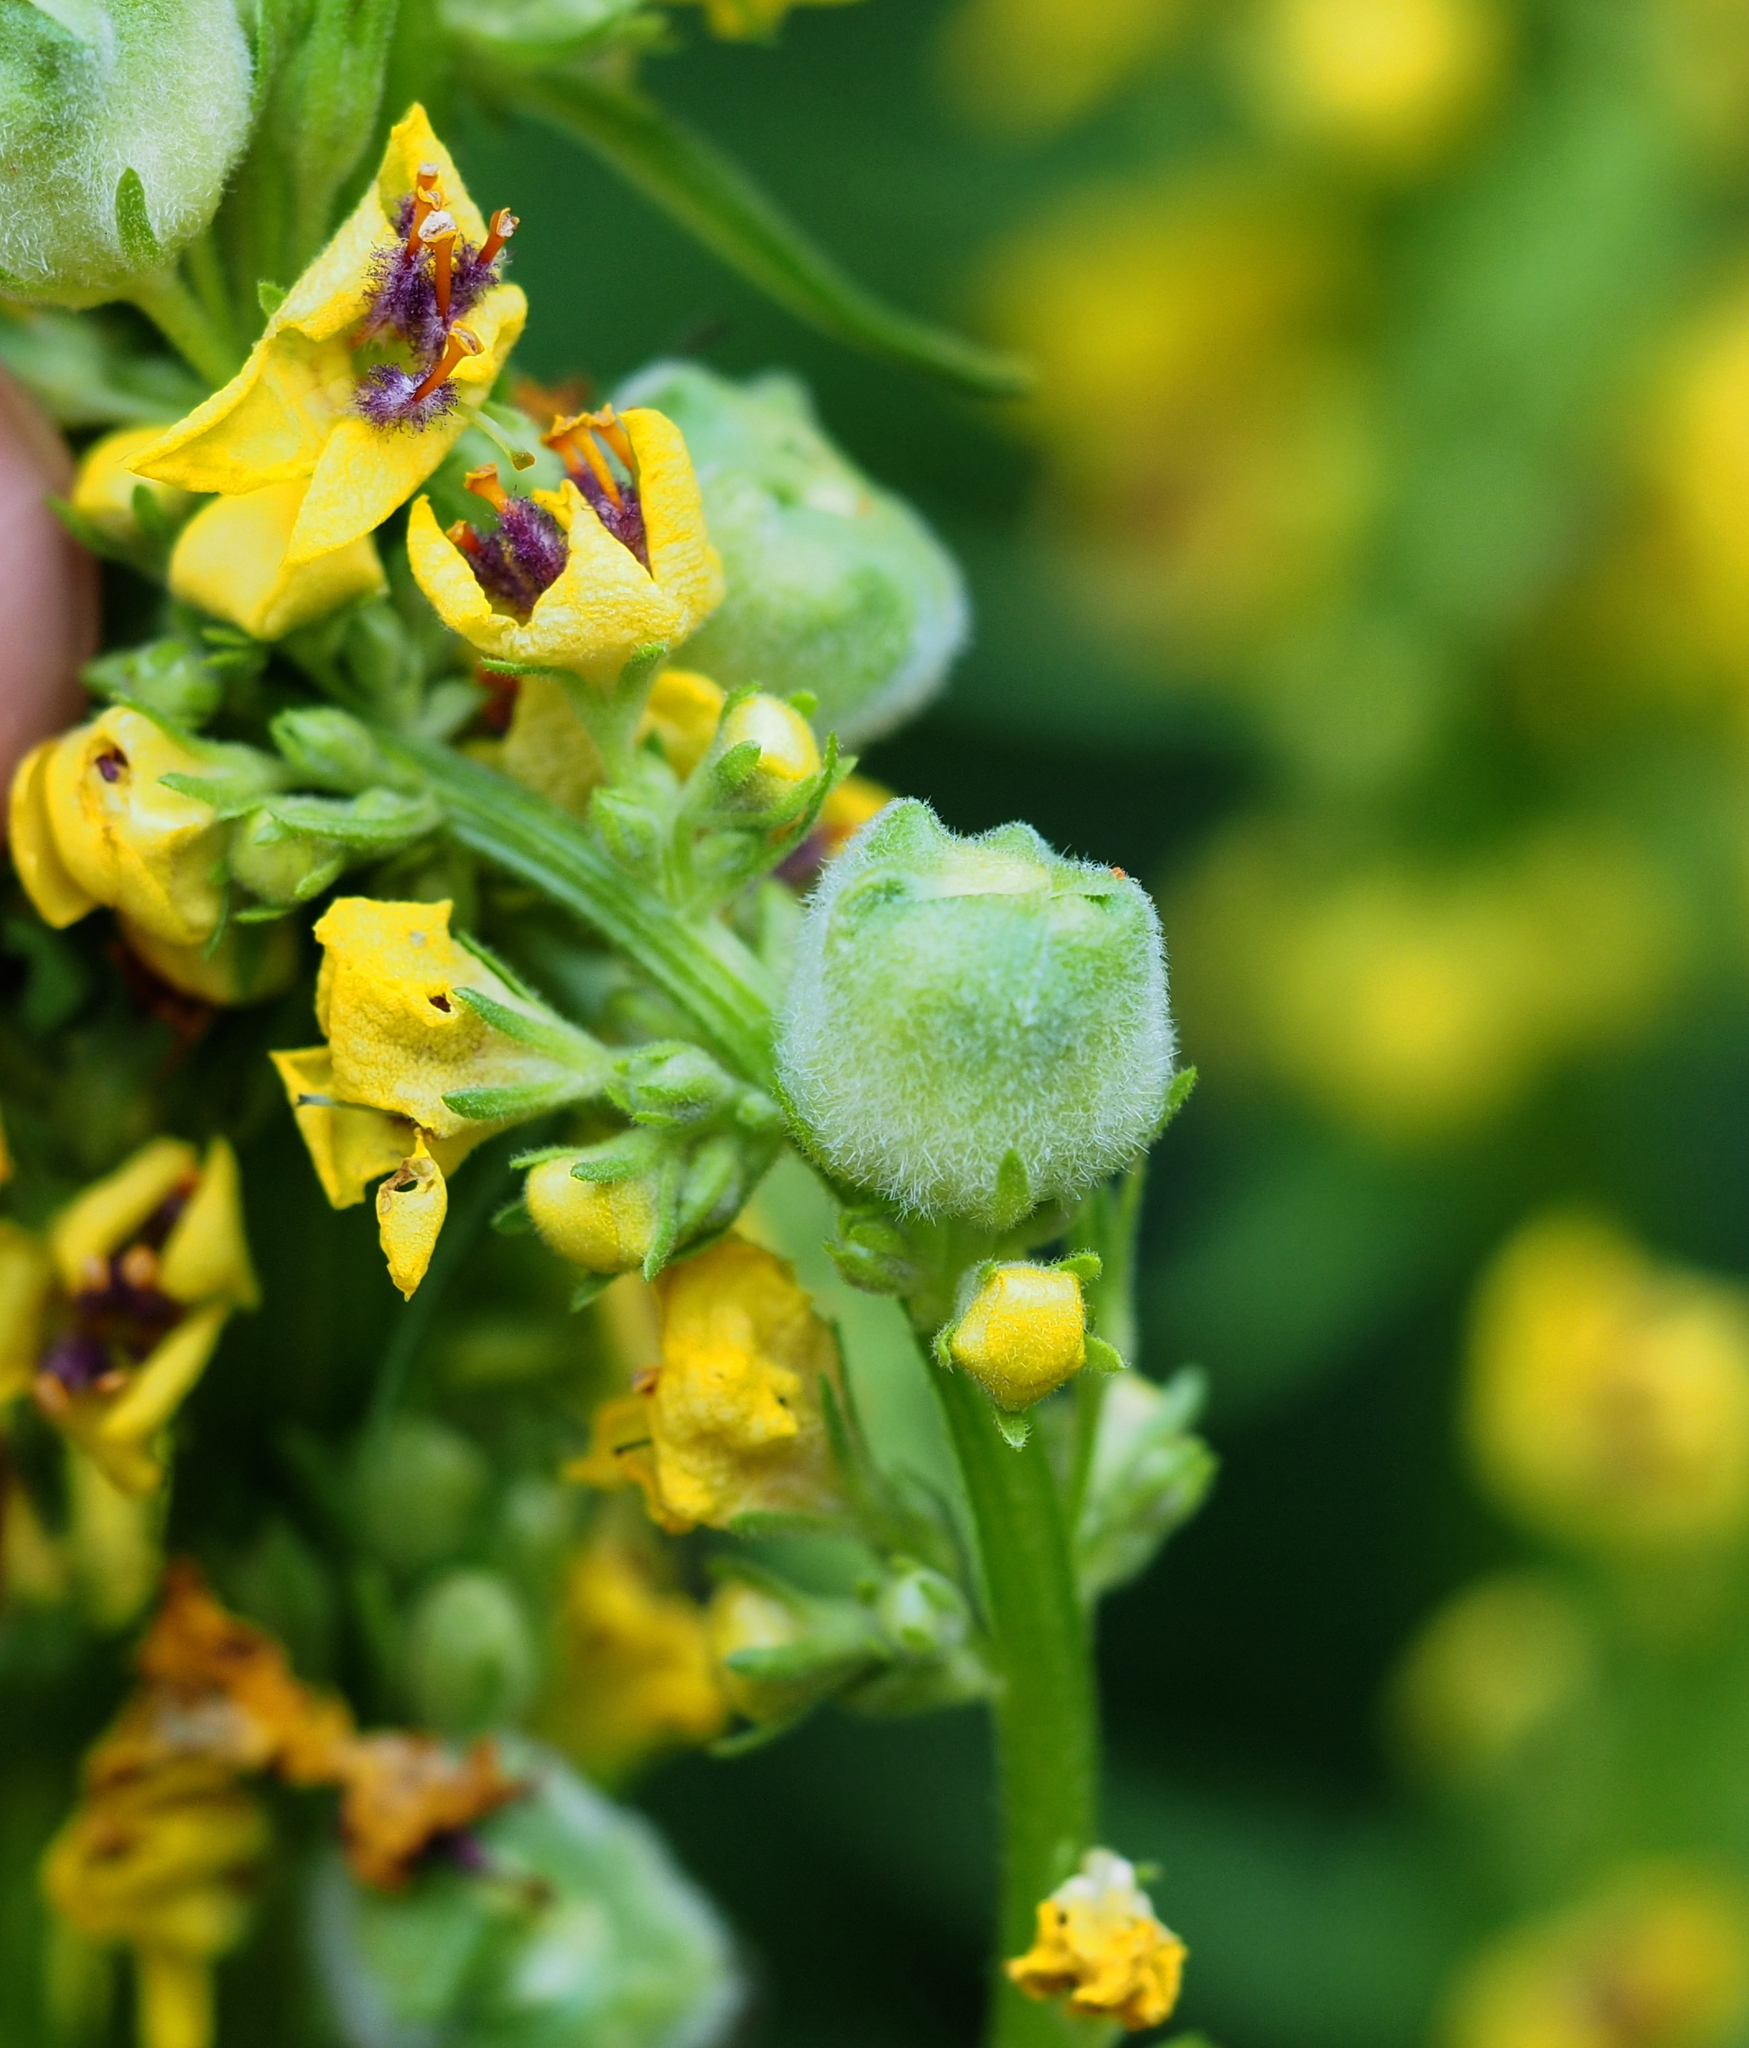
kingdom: Animalia
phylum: Arthropoda
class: Insecta
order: Diptera
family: Cecidomyiidae
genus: Asphondylia
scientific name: Asphondylia verbasci
